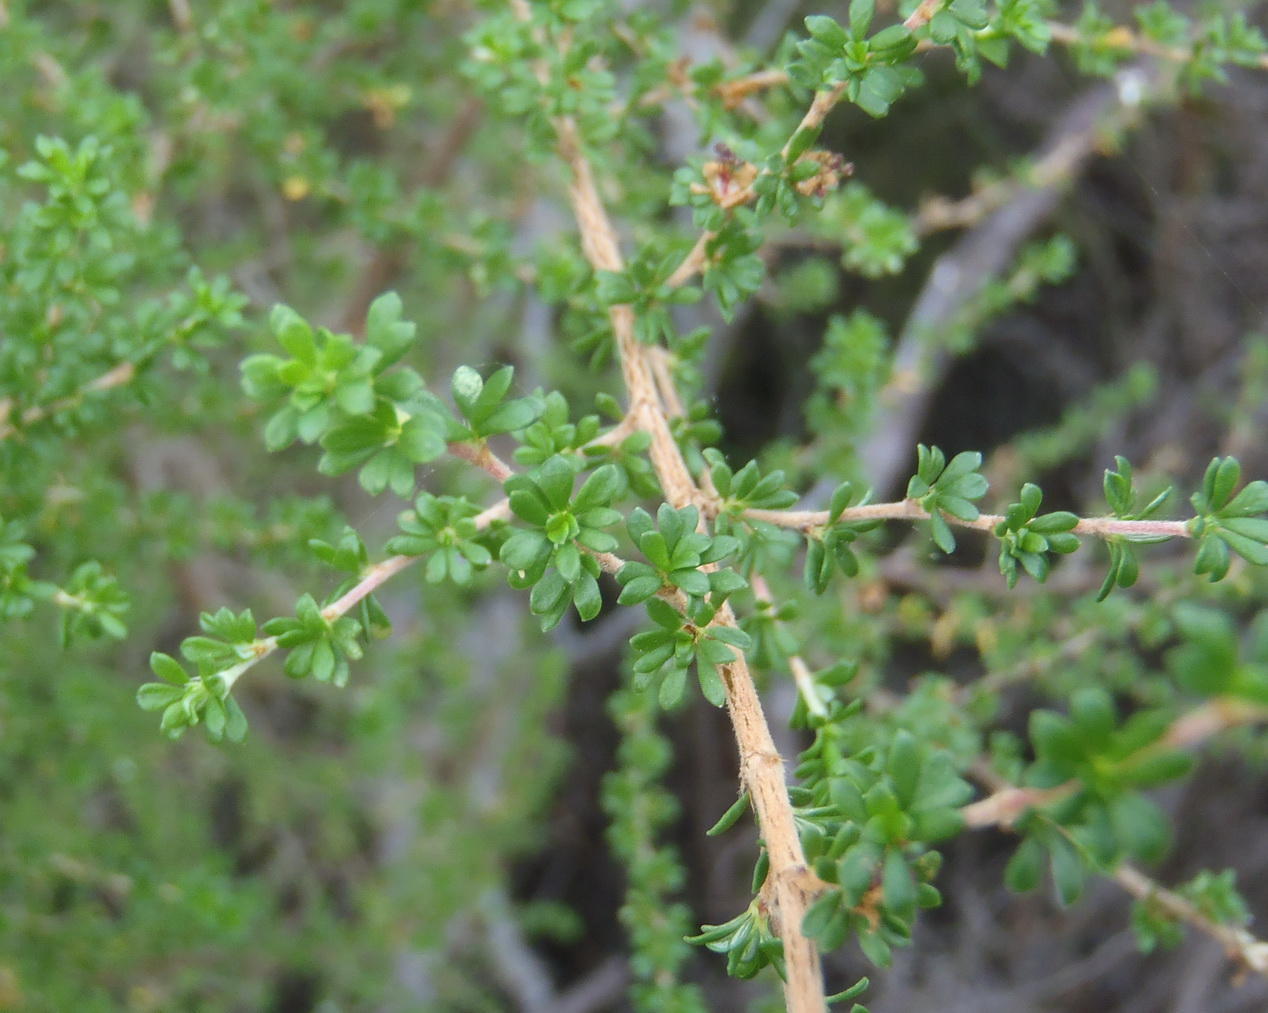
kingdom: Plantae
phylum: Tracheophyta
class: Magnoliopsida
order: Rosales
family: Rosaceae
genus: Cliffortia
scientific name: Cliffortia serpyllifolia
